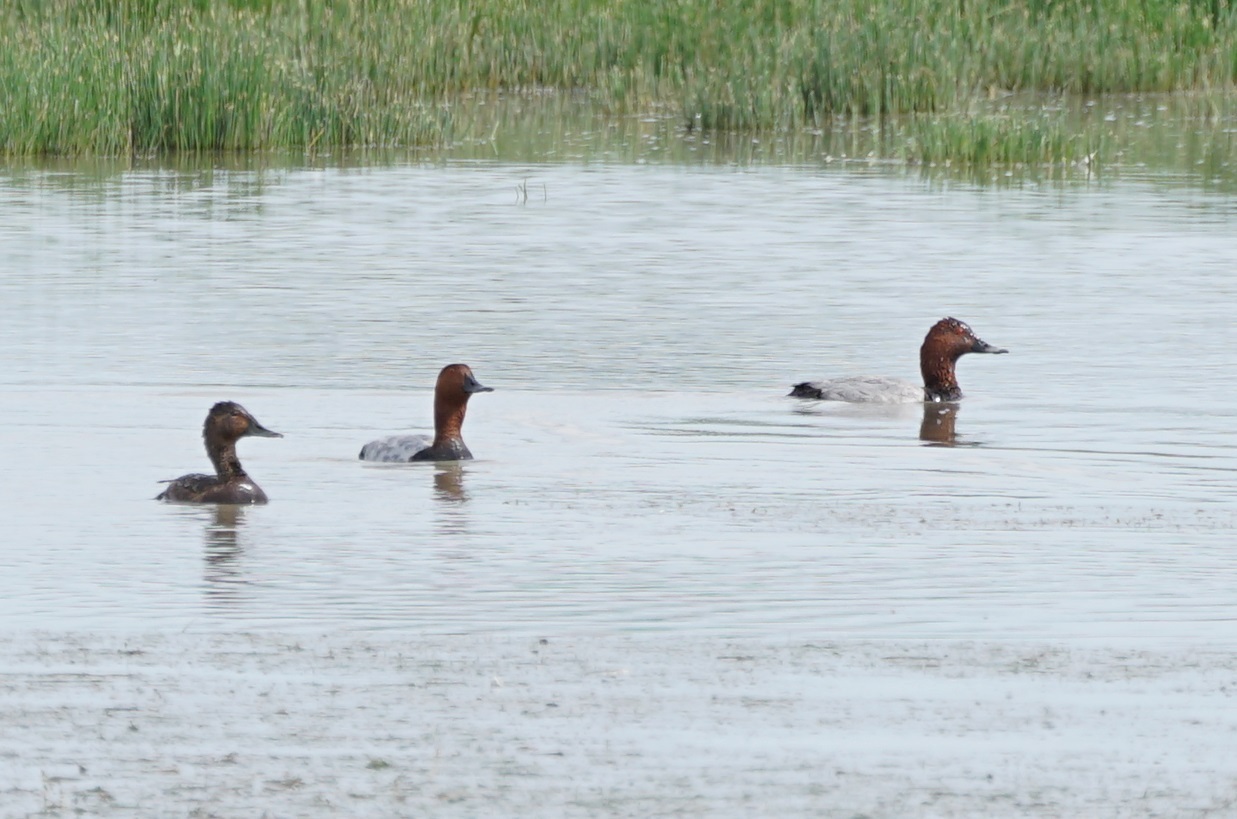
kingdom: Animalia
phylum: Chordata
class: Aves
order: Anseriformes
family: Anatidae
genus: Aythya
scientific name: Aythya ferina
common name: Common pochard
